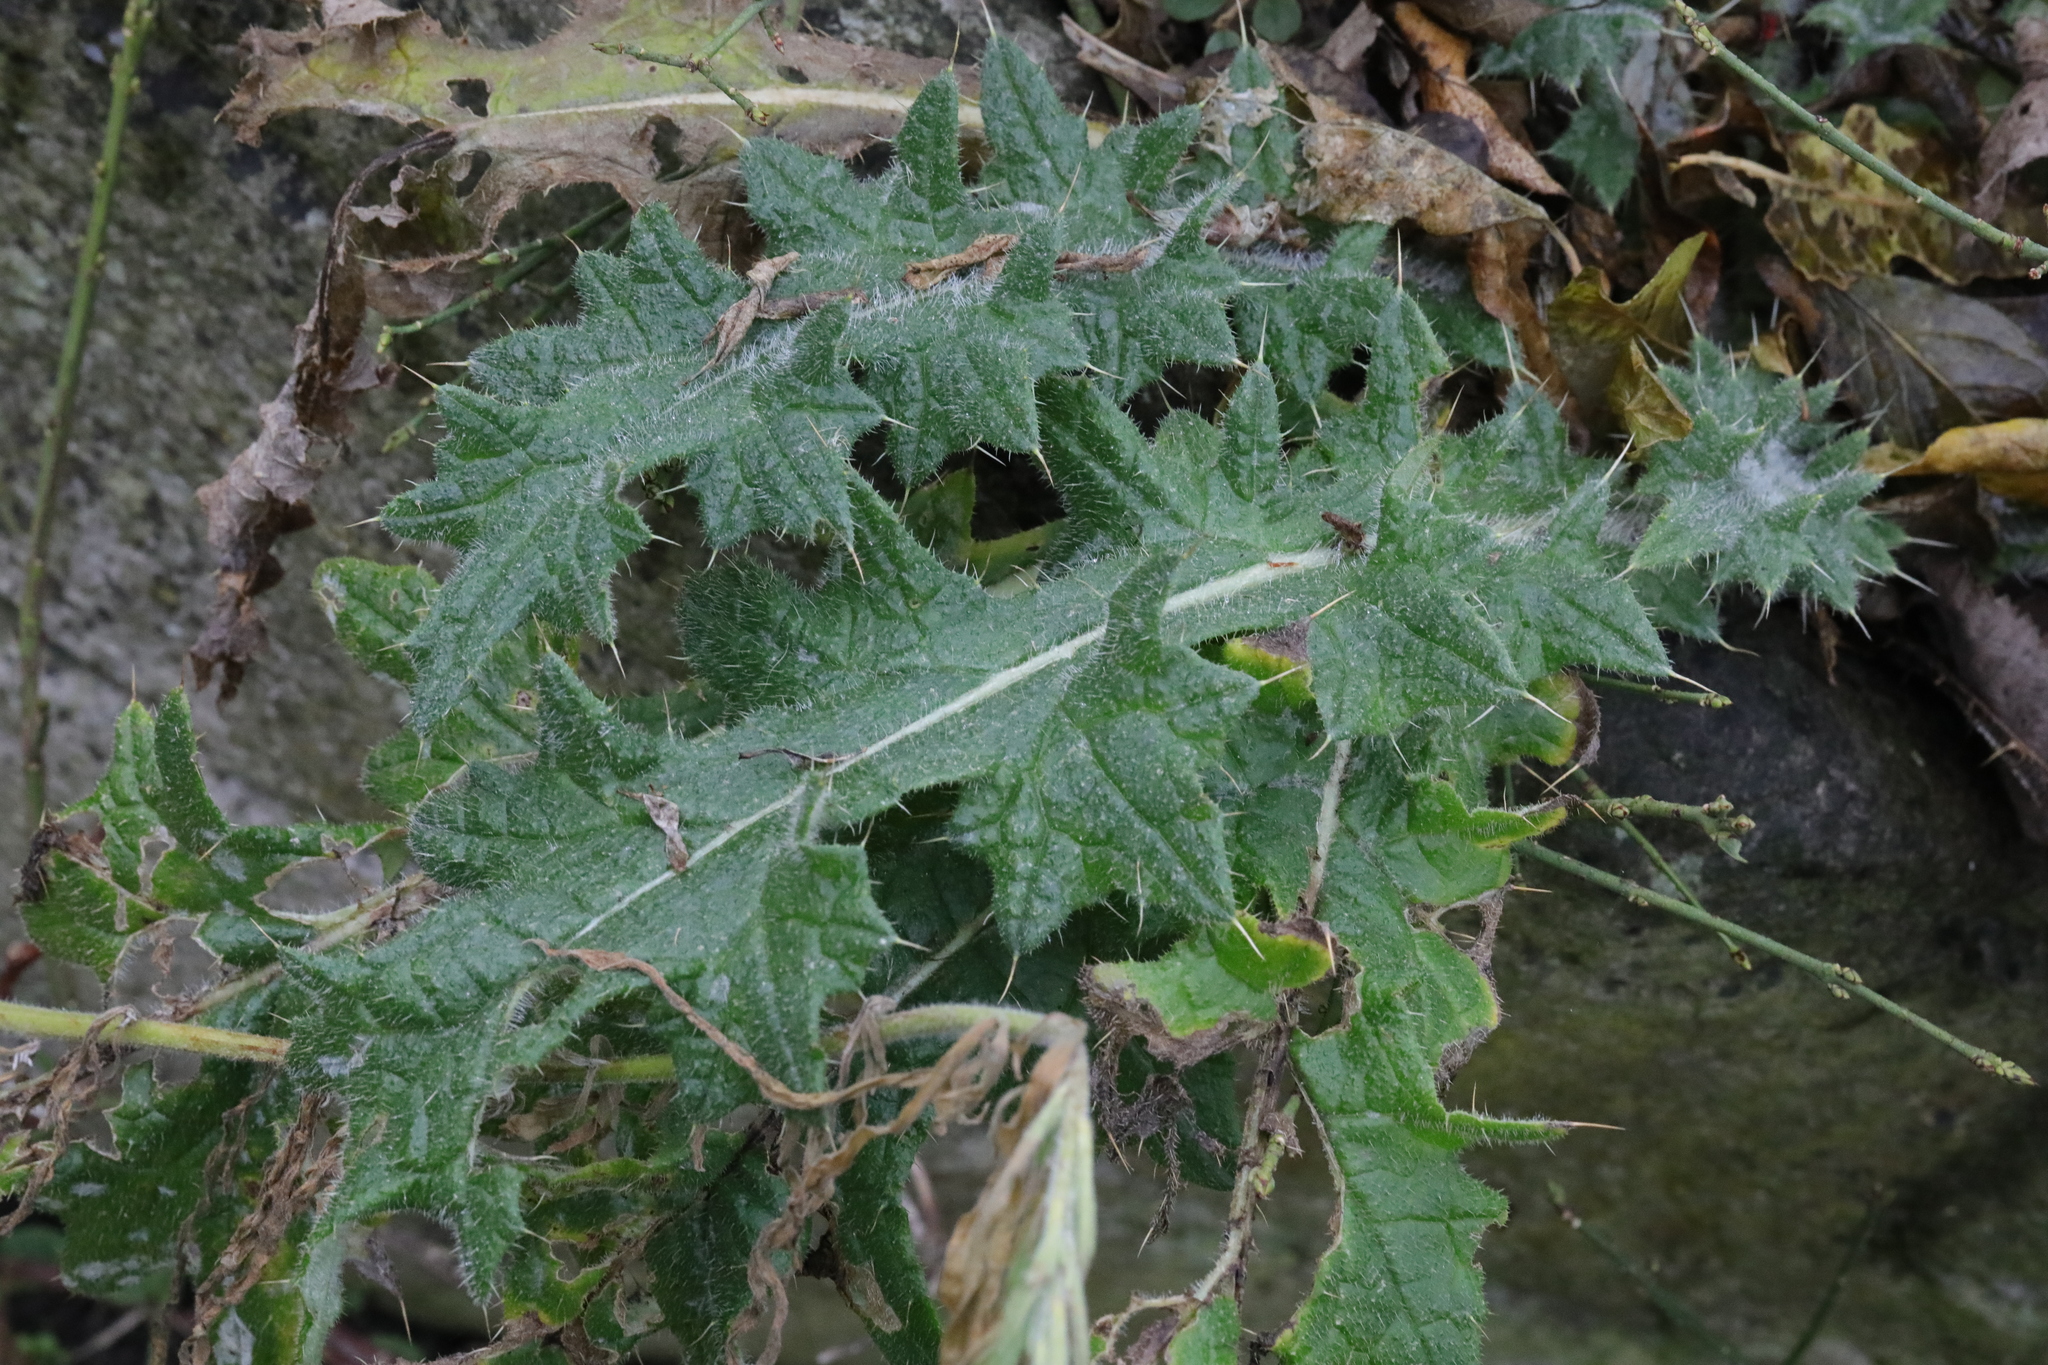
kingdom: Plantae
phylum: Tracheophyta
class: Magnoliopsida
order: Asterales
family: Asteraceae
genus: Cirsium
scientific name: Cirsium vulgare
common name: Bull thistle
